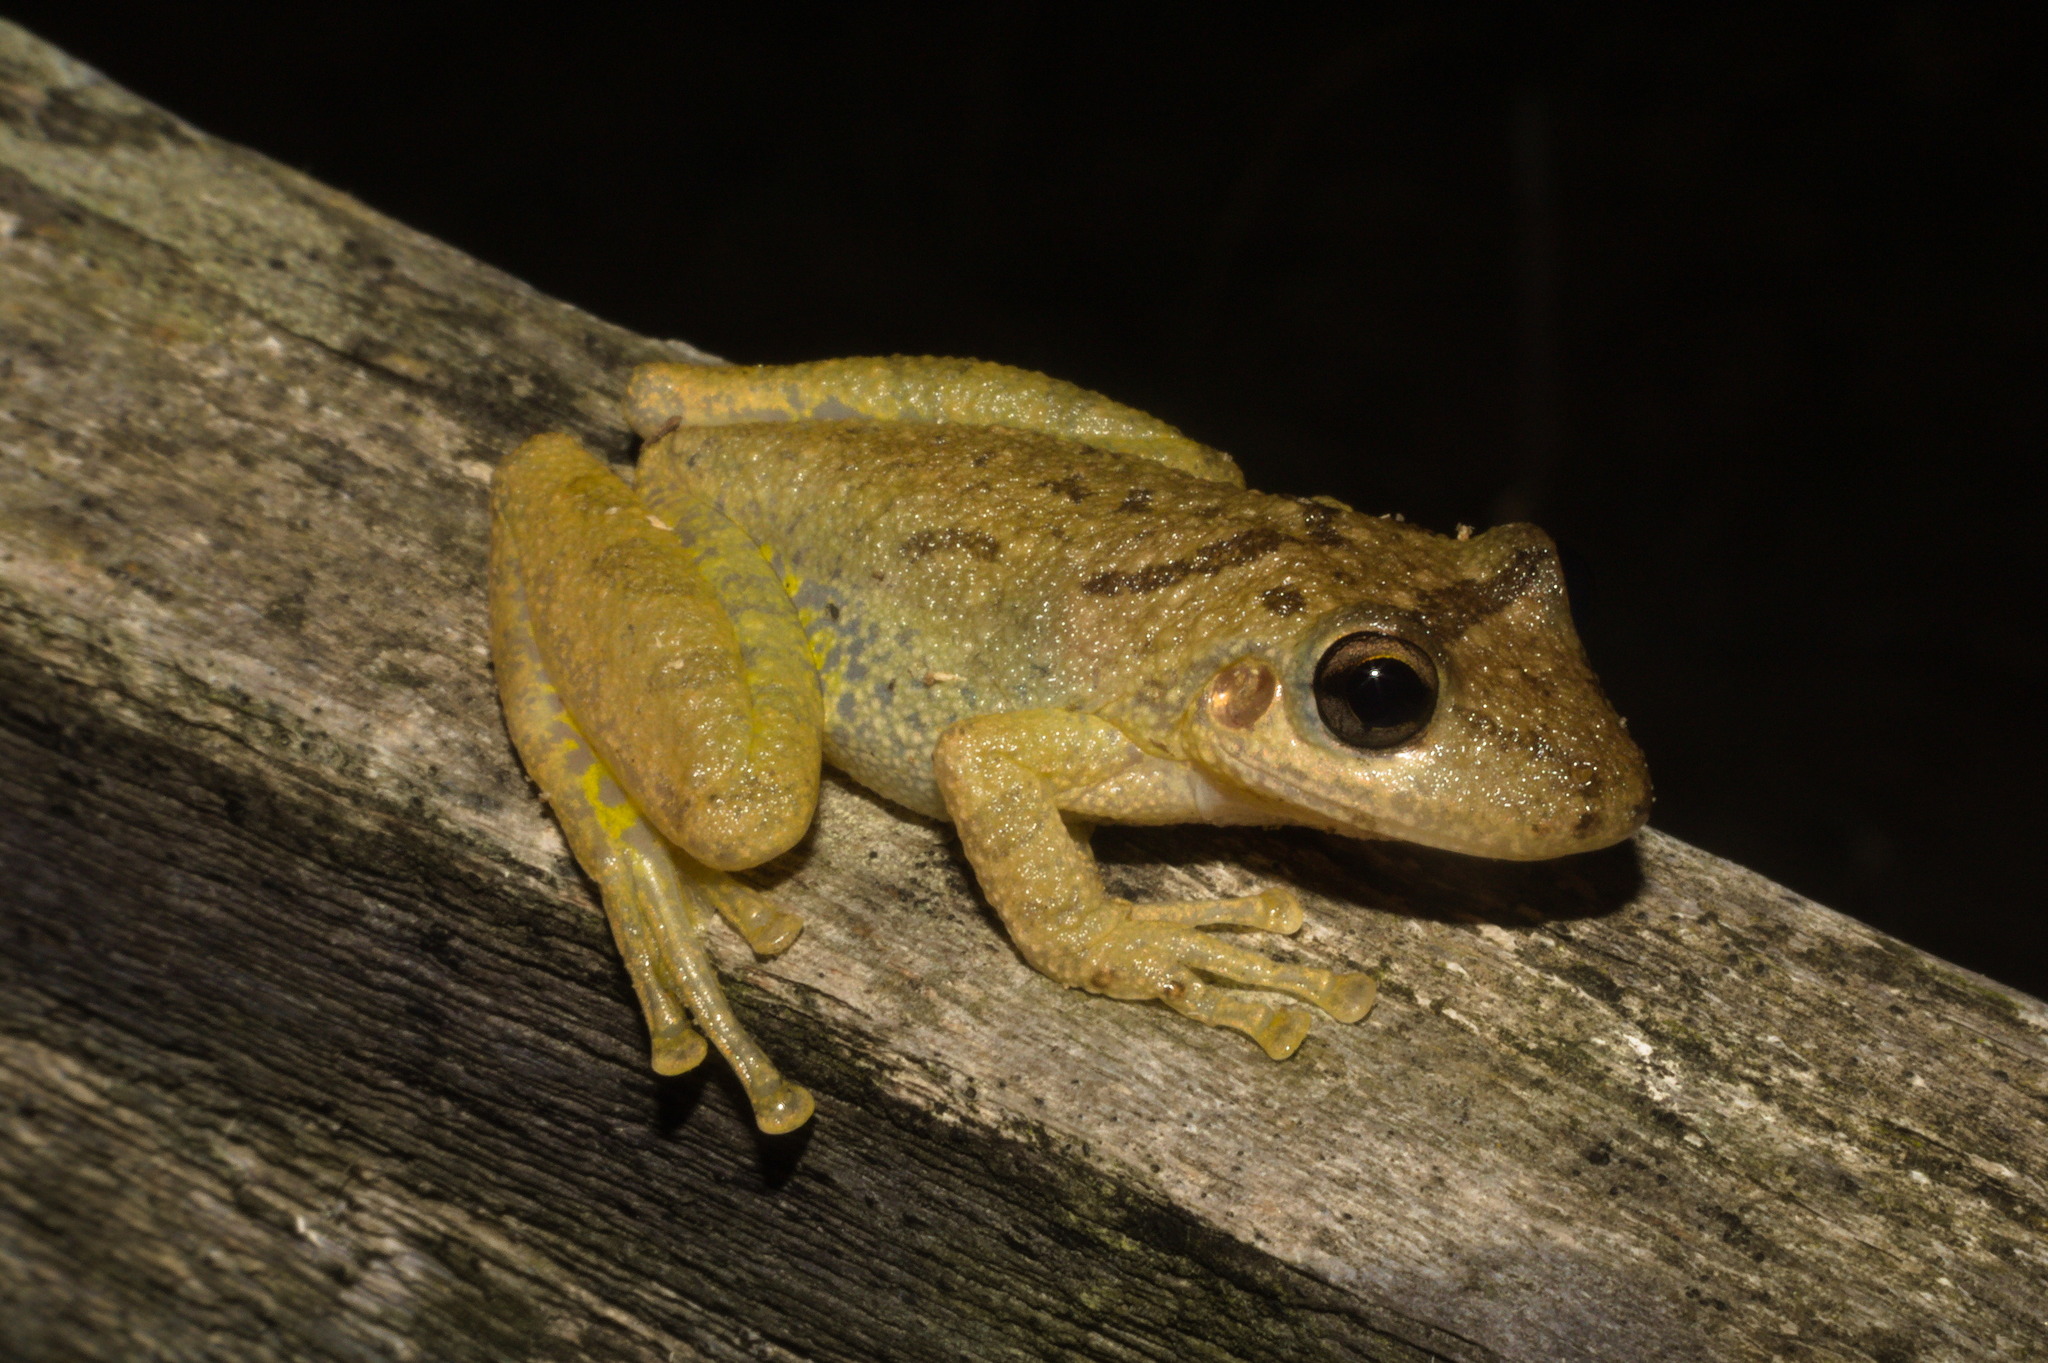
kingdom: Animalia
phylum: Chordata
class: Amphibia
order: Anura
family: Hylidae
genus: Scinax
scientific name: Scinax fuscovarius
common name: Fuscous-blotched treefrog
